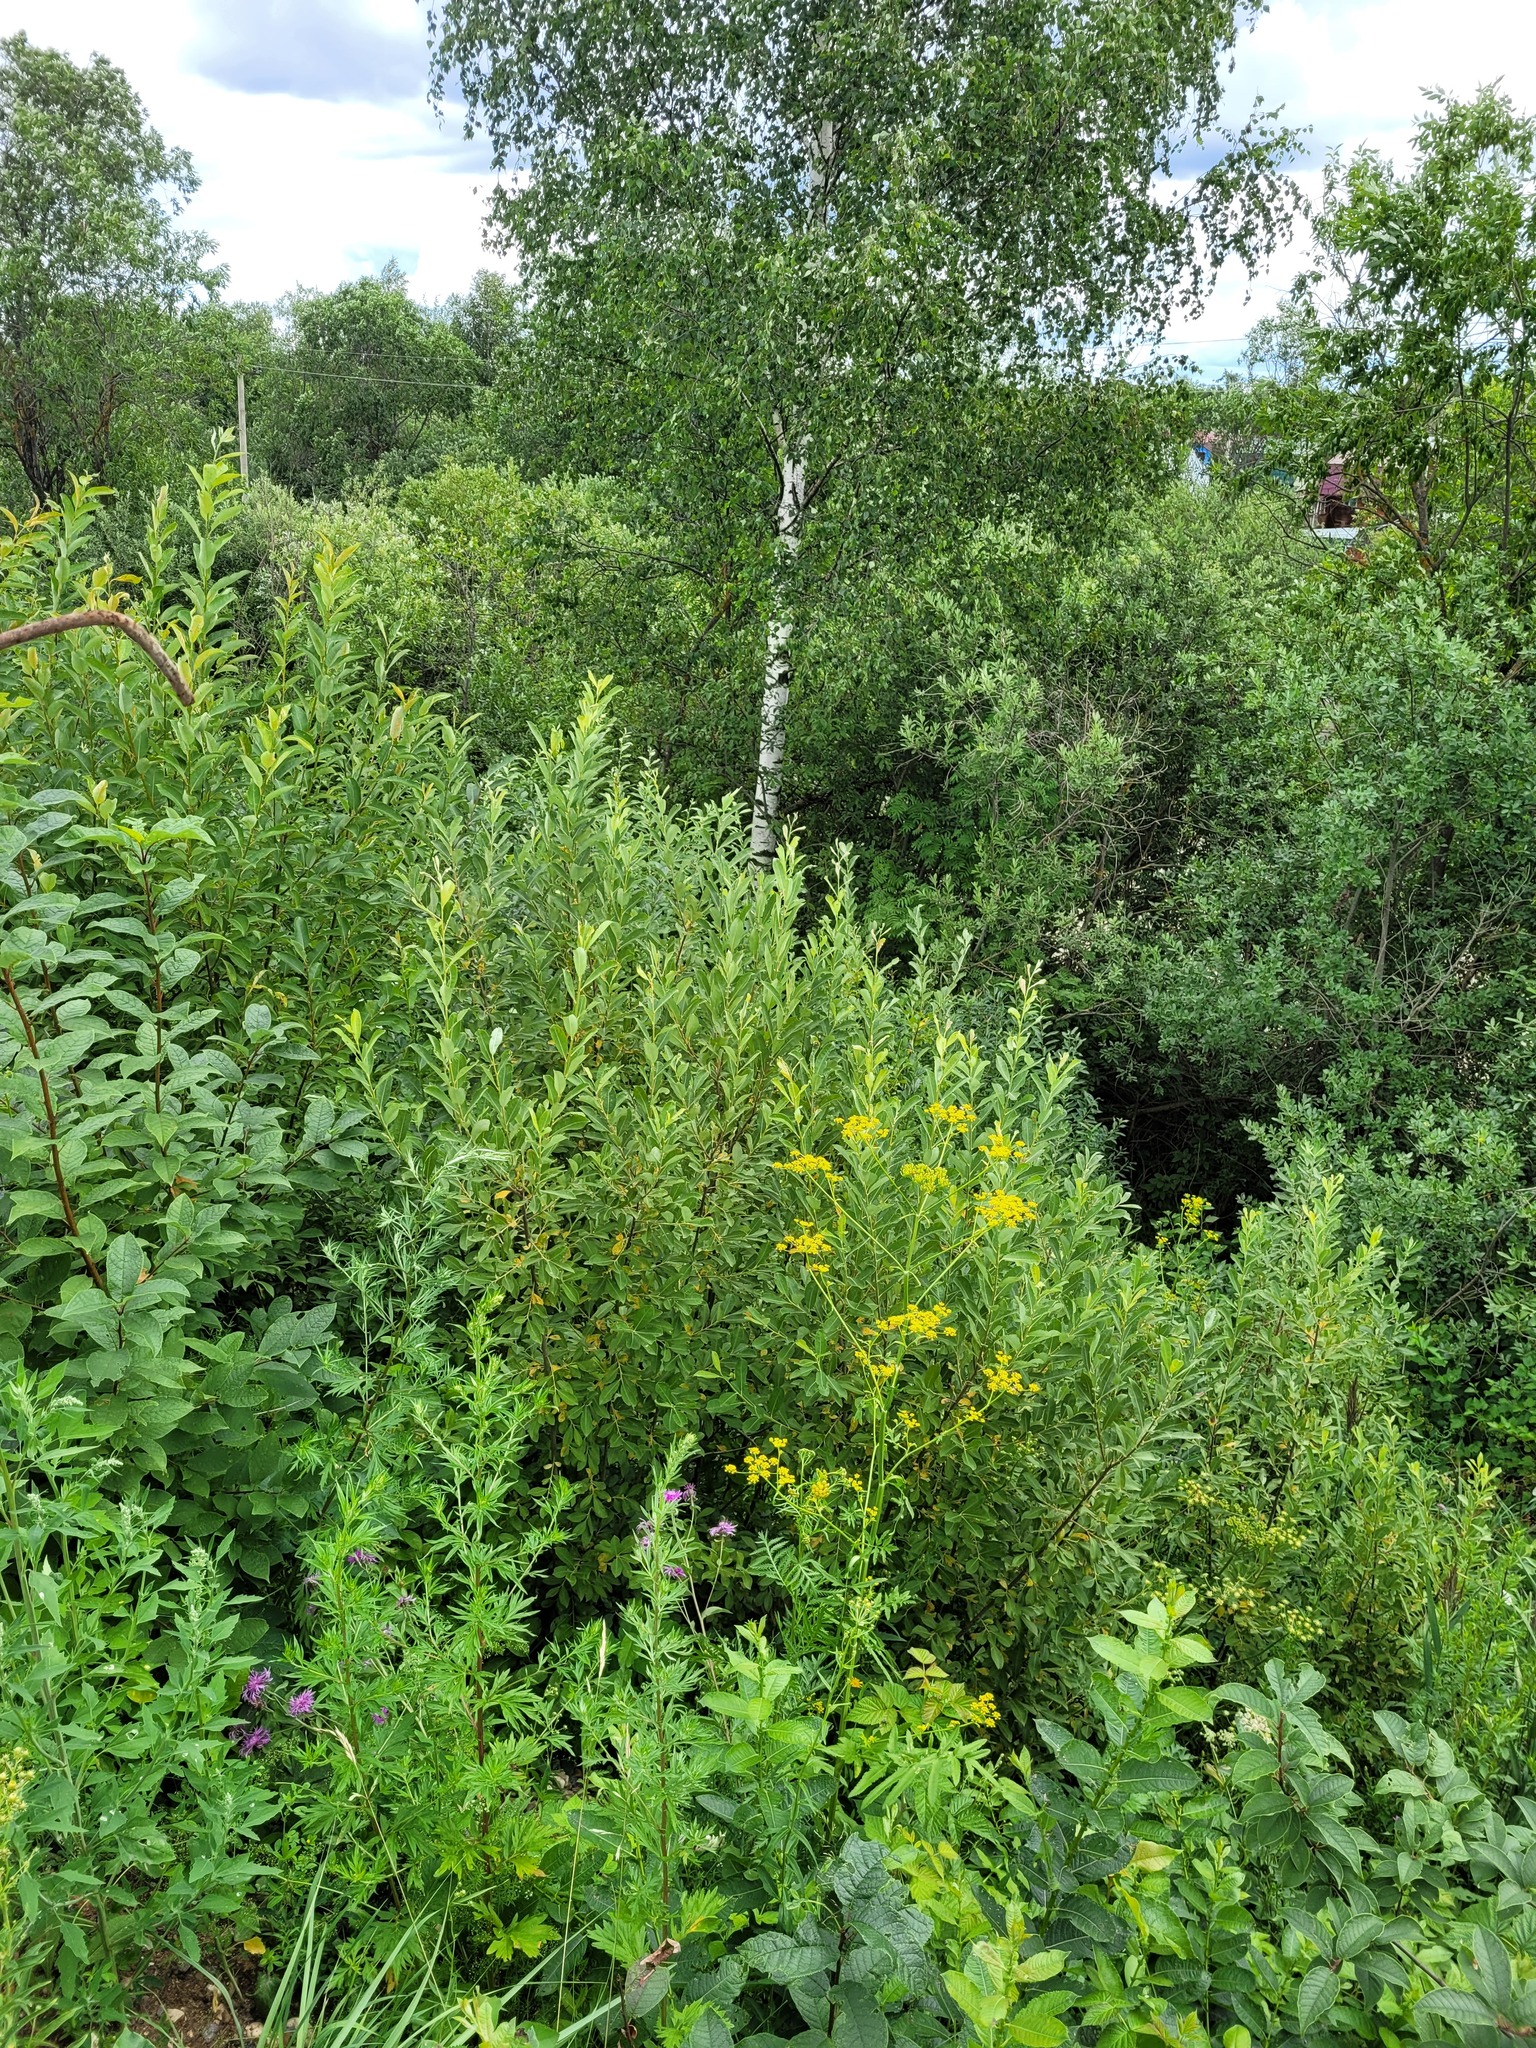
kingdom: Plantae
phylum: Tracheophyta
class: Magnoliopsida
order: Malpighiales
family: Salicaceae
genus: Salix
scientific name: Salix cinerea
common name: Common sallow
